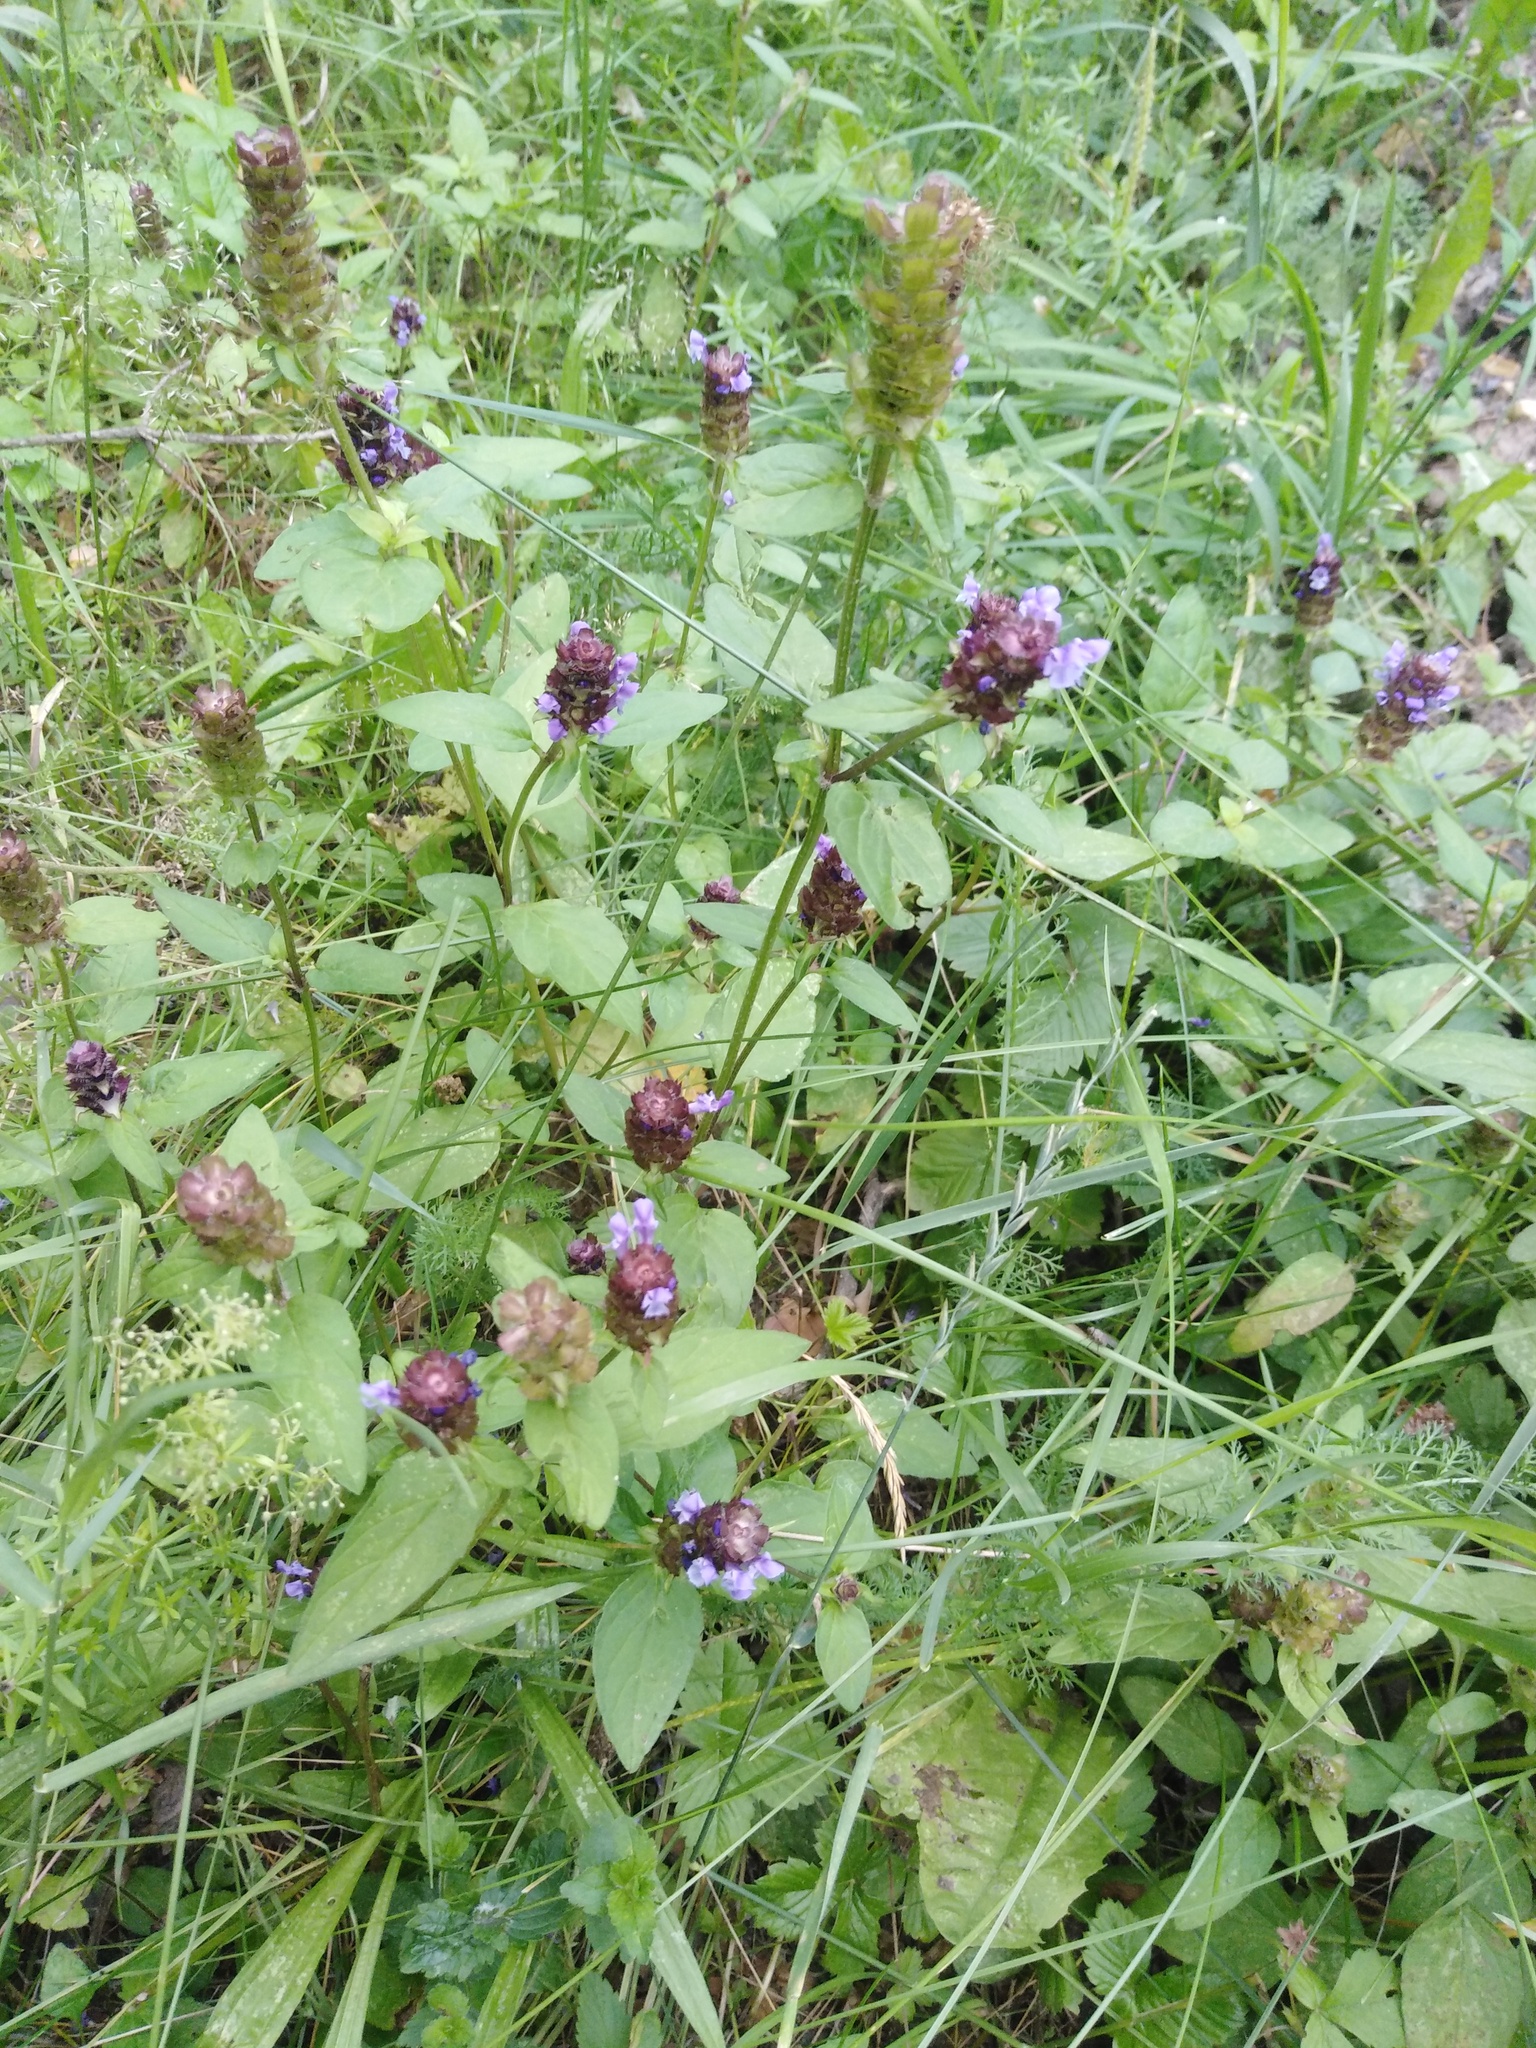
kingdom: Plantae
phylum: Tracheophyta
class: Magnoliopsida
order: Lamiales
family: Lamiaceae
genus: Prunella
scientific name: Prunella vulgaris
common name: Heal-all
